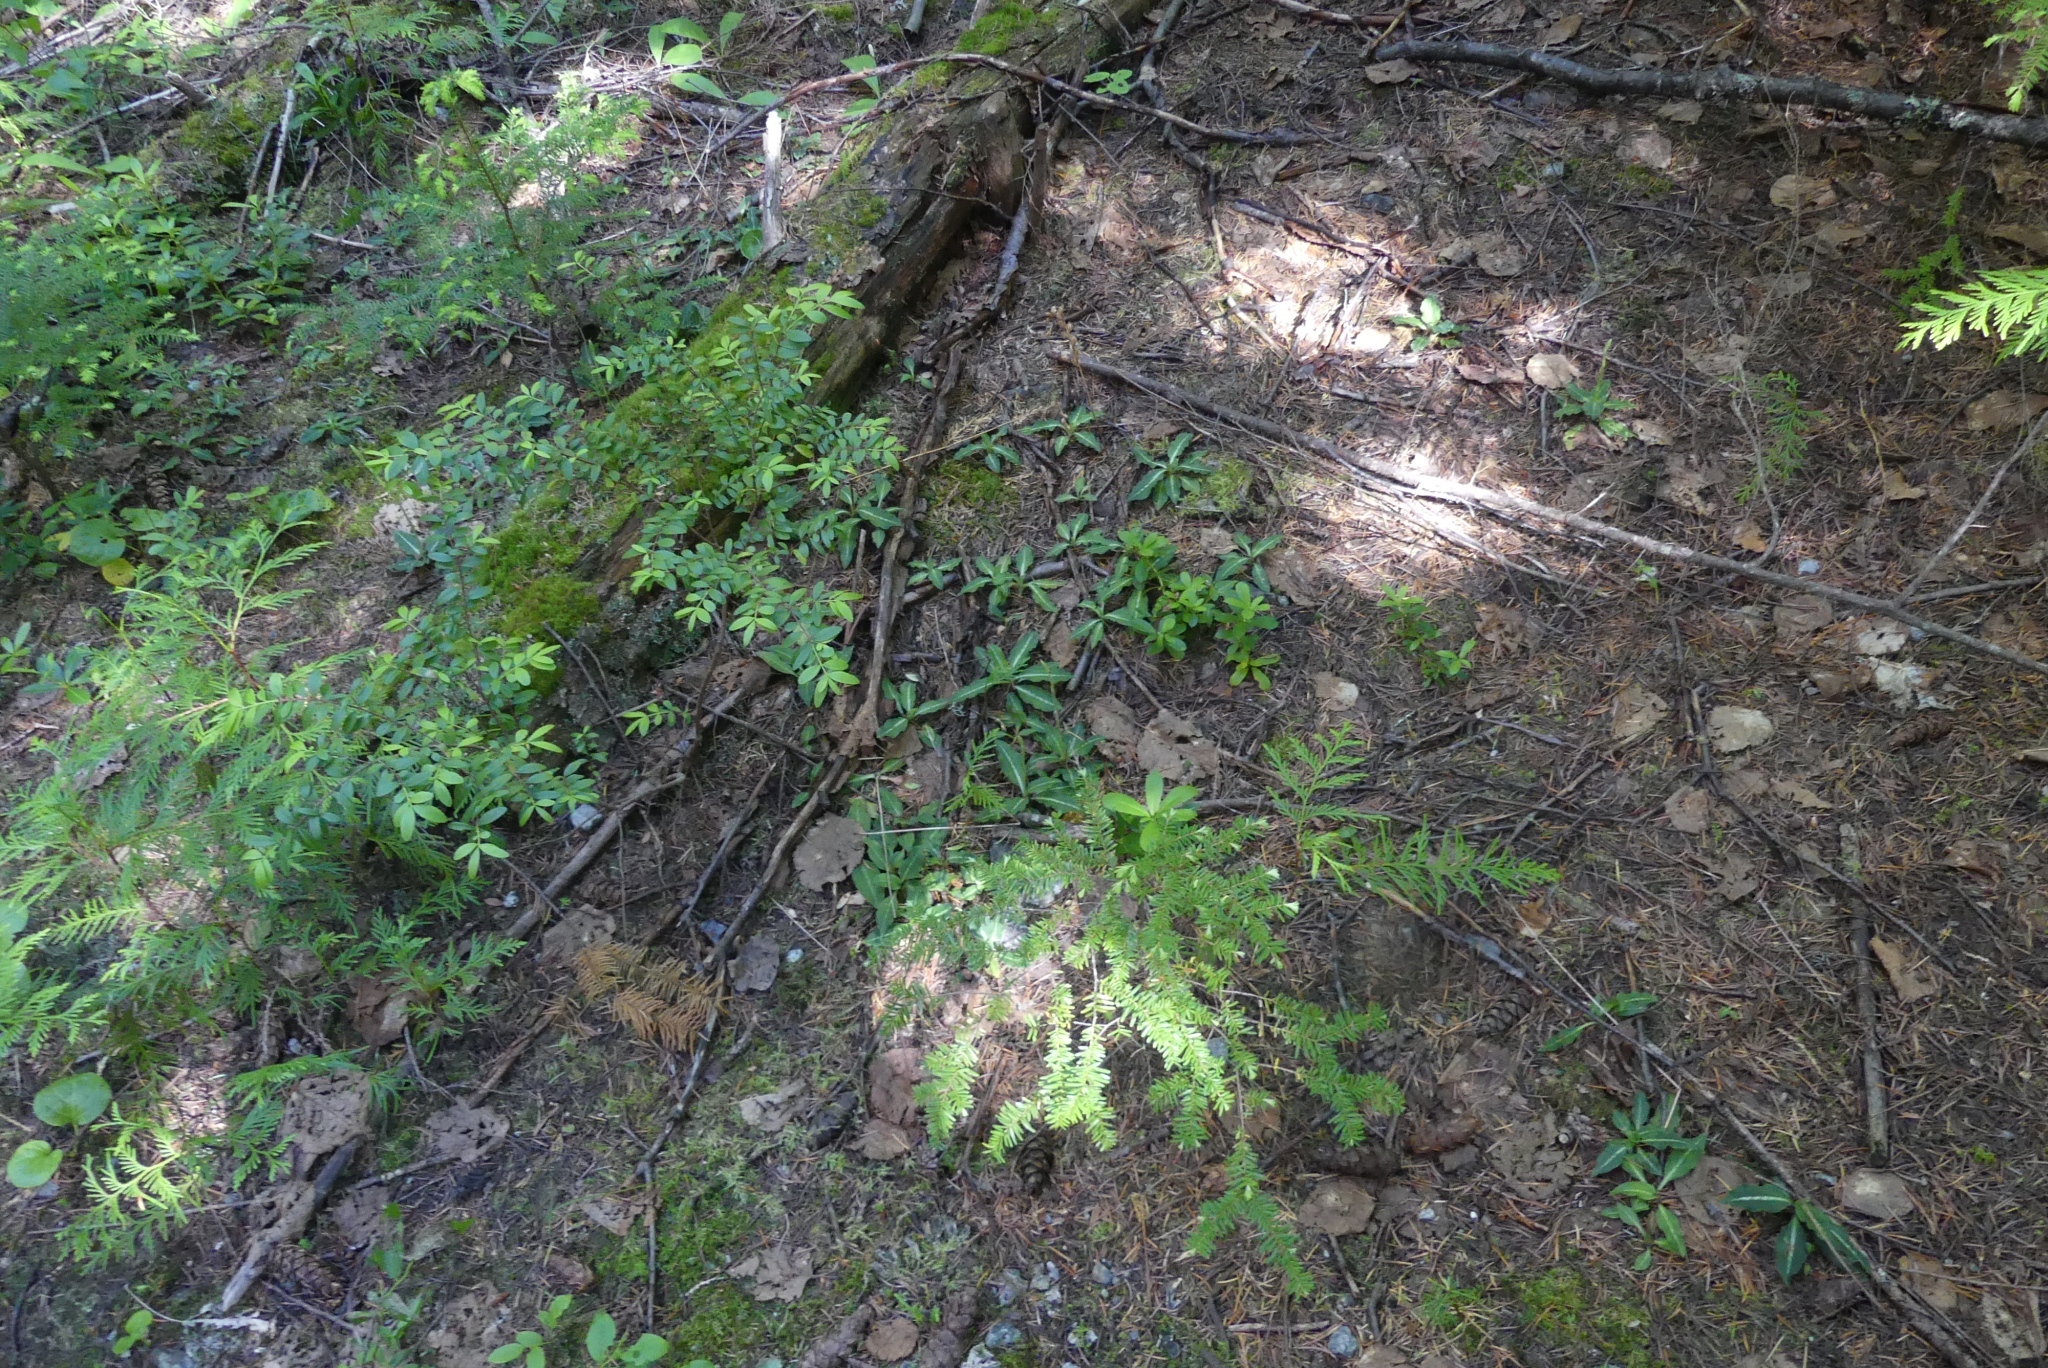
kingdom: Plantae
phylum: Tracheophyta
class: Liliopsida
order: Asparagales
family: Orchidaceae
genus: Goodyera
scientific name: Goodyera oblongifolia
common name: Giant rattlesnake-plantain
